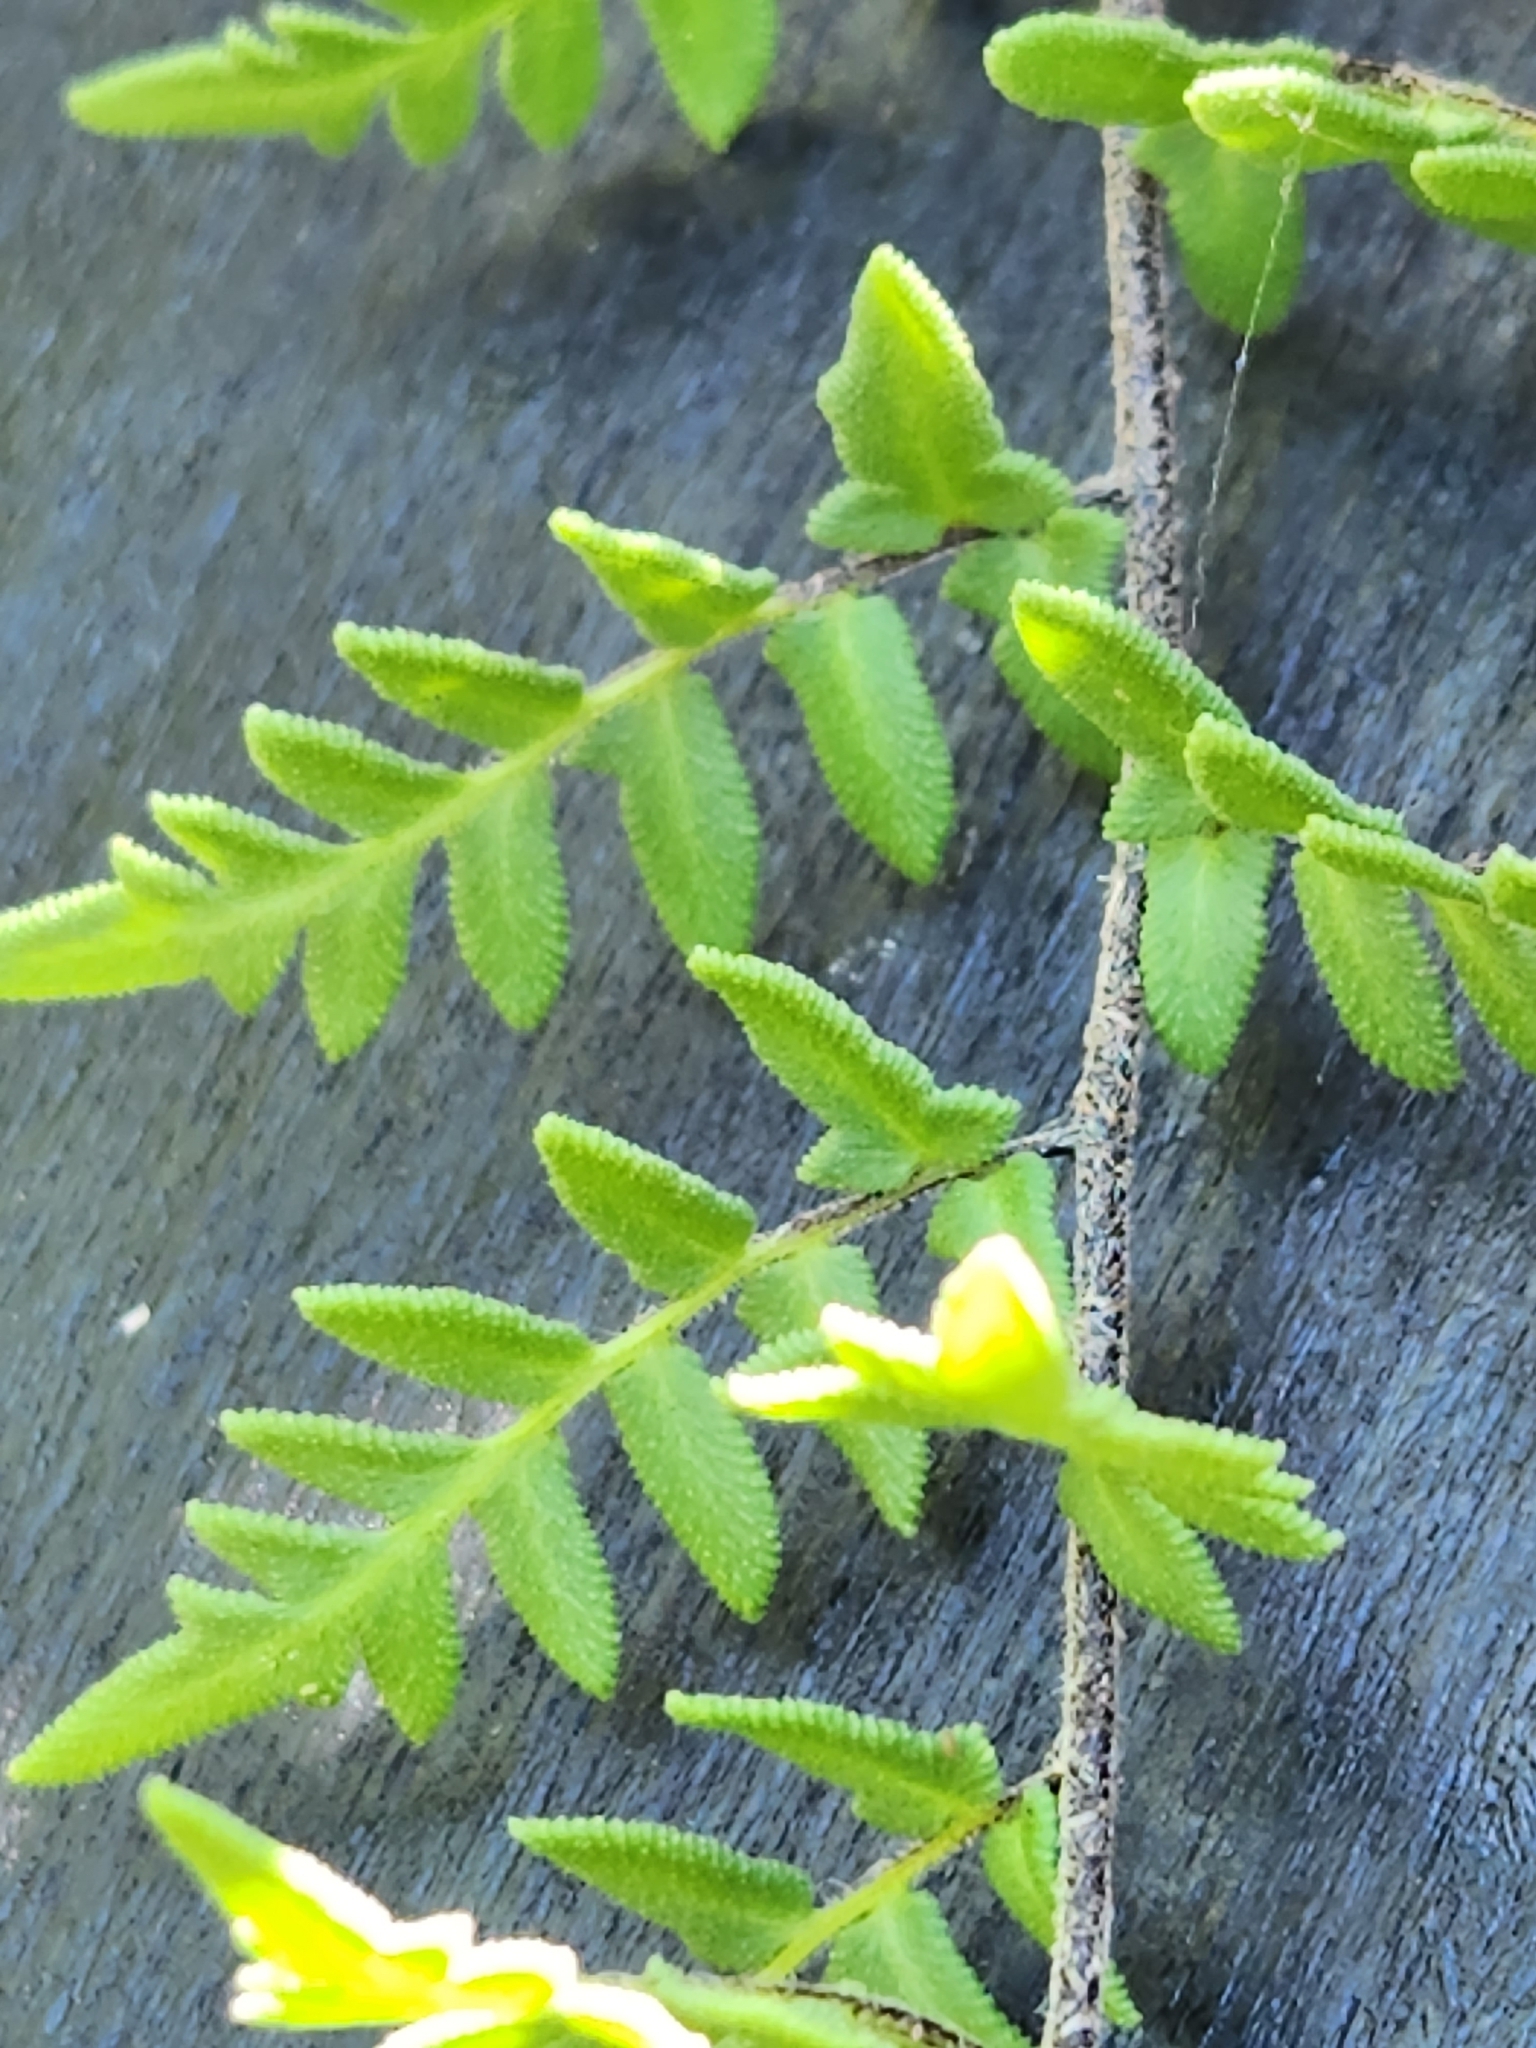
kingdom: Plantae
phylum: Tracheophyta
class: Polypodiopsida
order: Polypodiales
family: Pteridaceae
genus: Myriopteris
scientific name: Myriopteris scabra
